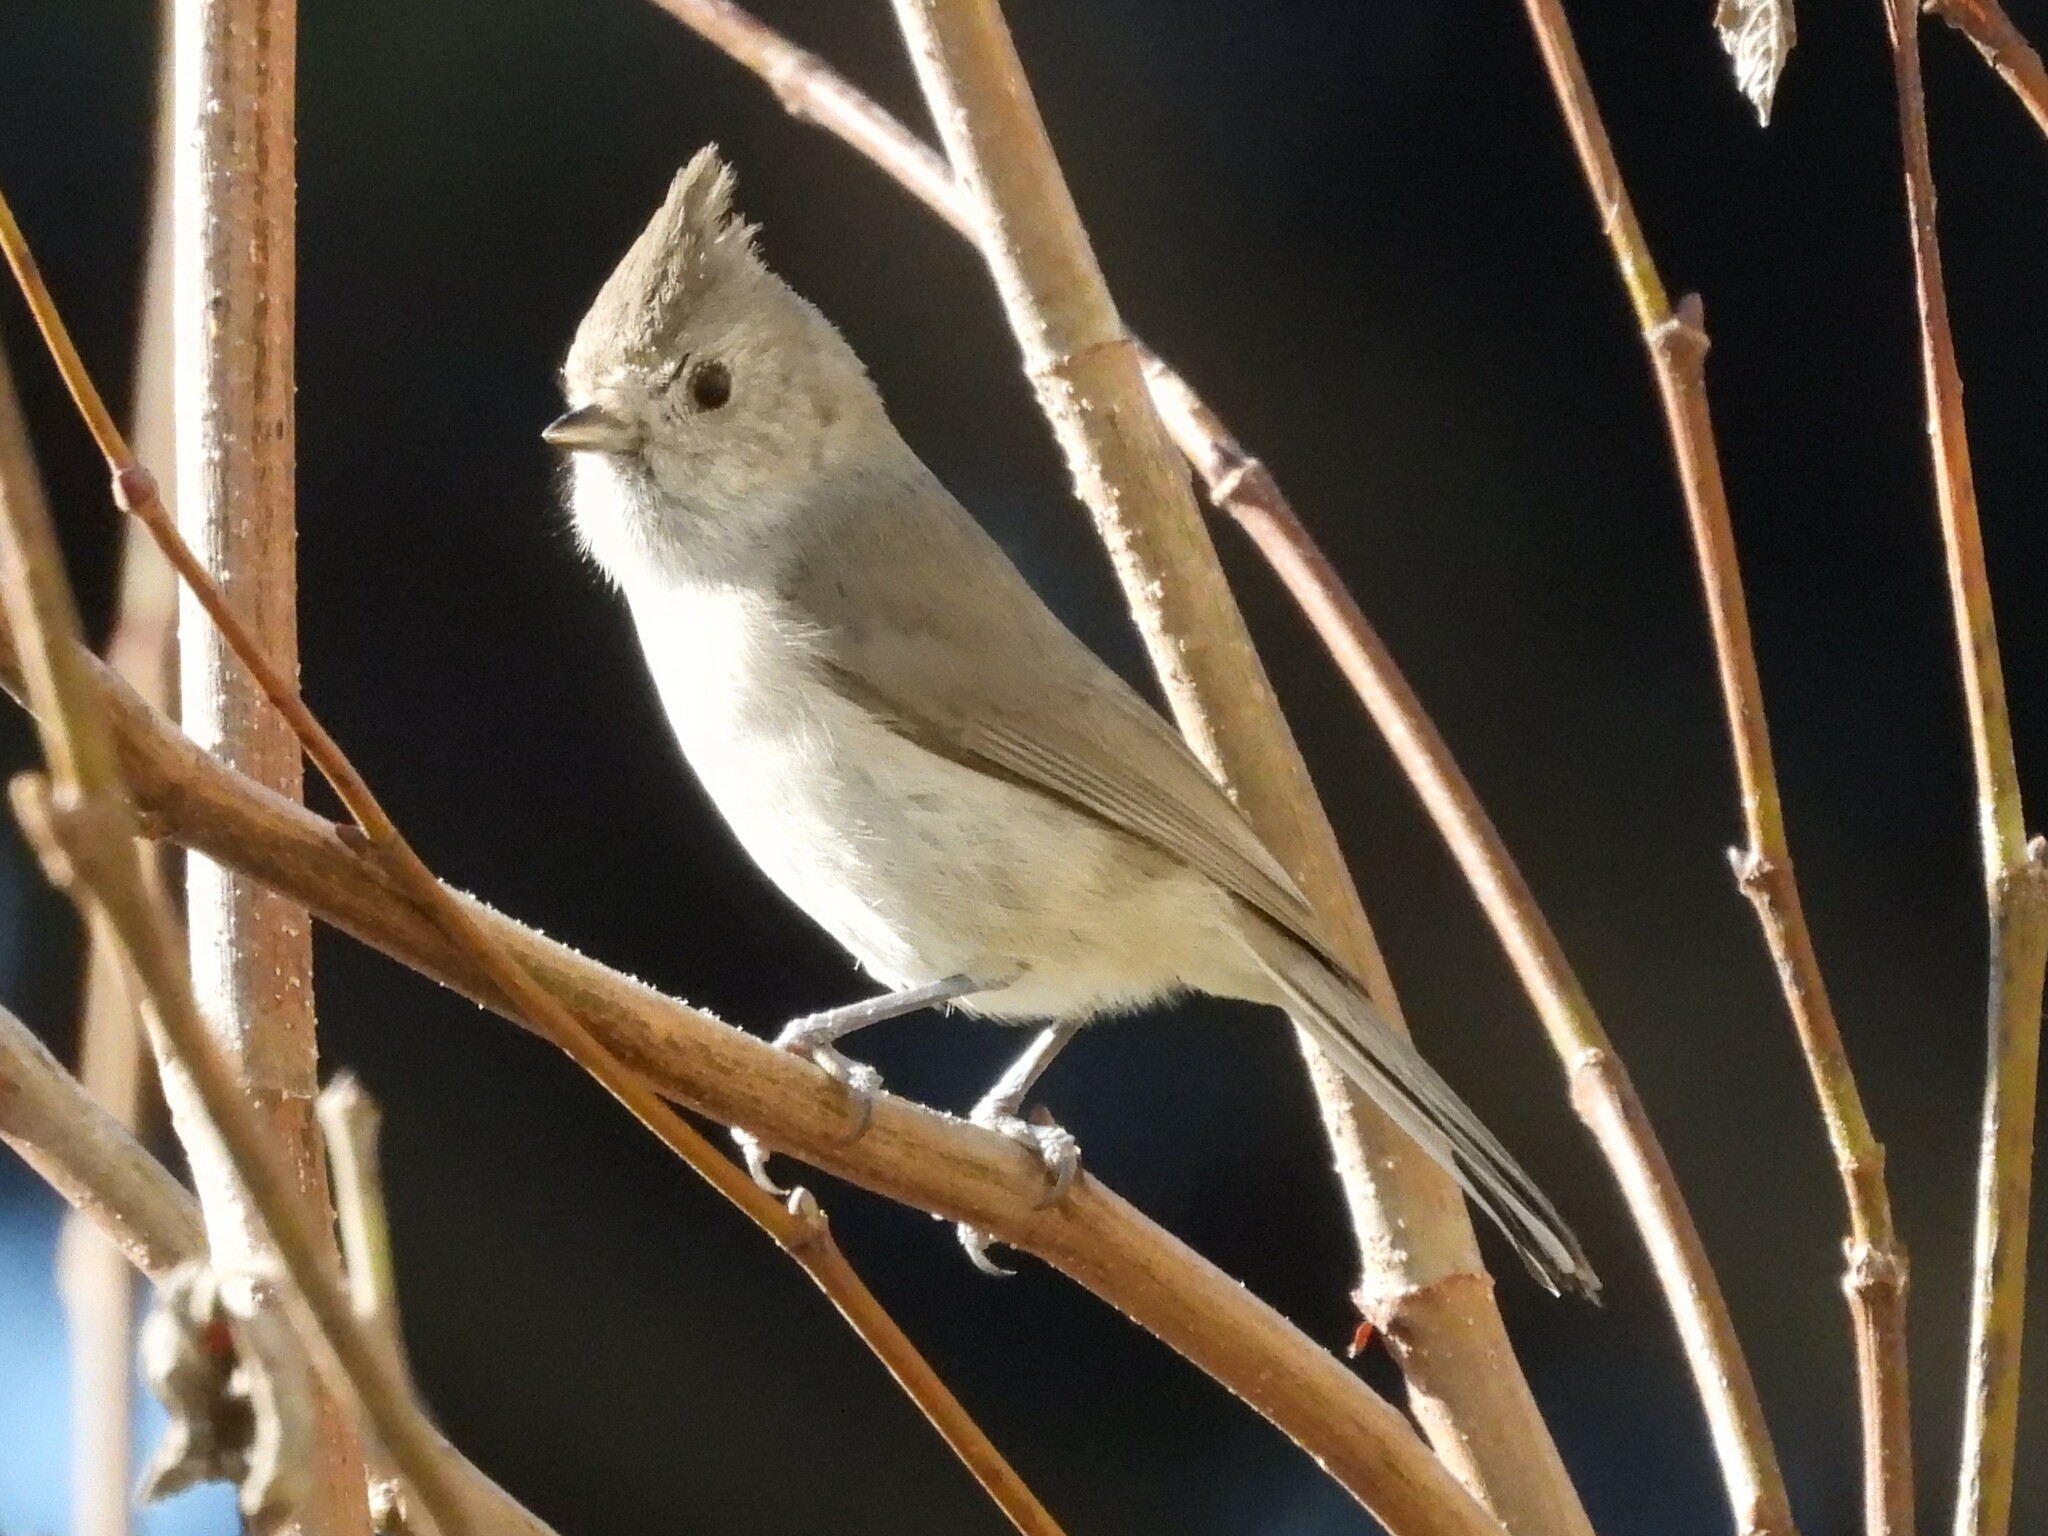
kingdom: Animalia
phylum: Chordata
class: Aves
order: Passeriformes
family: Paridae
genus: Baeolophus
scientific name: Baeolophus inornatus
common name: Oak titmouse
